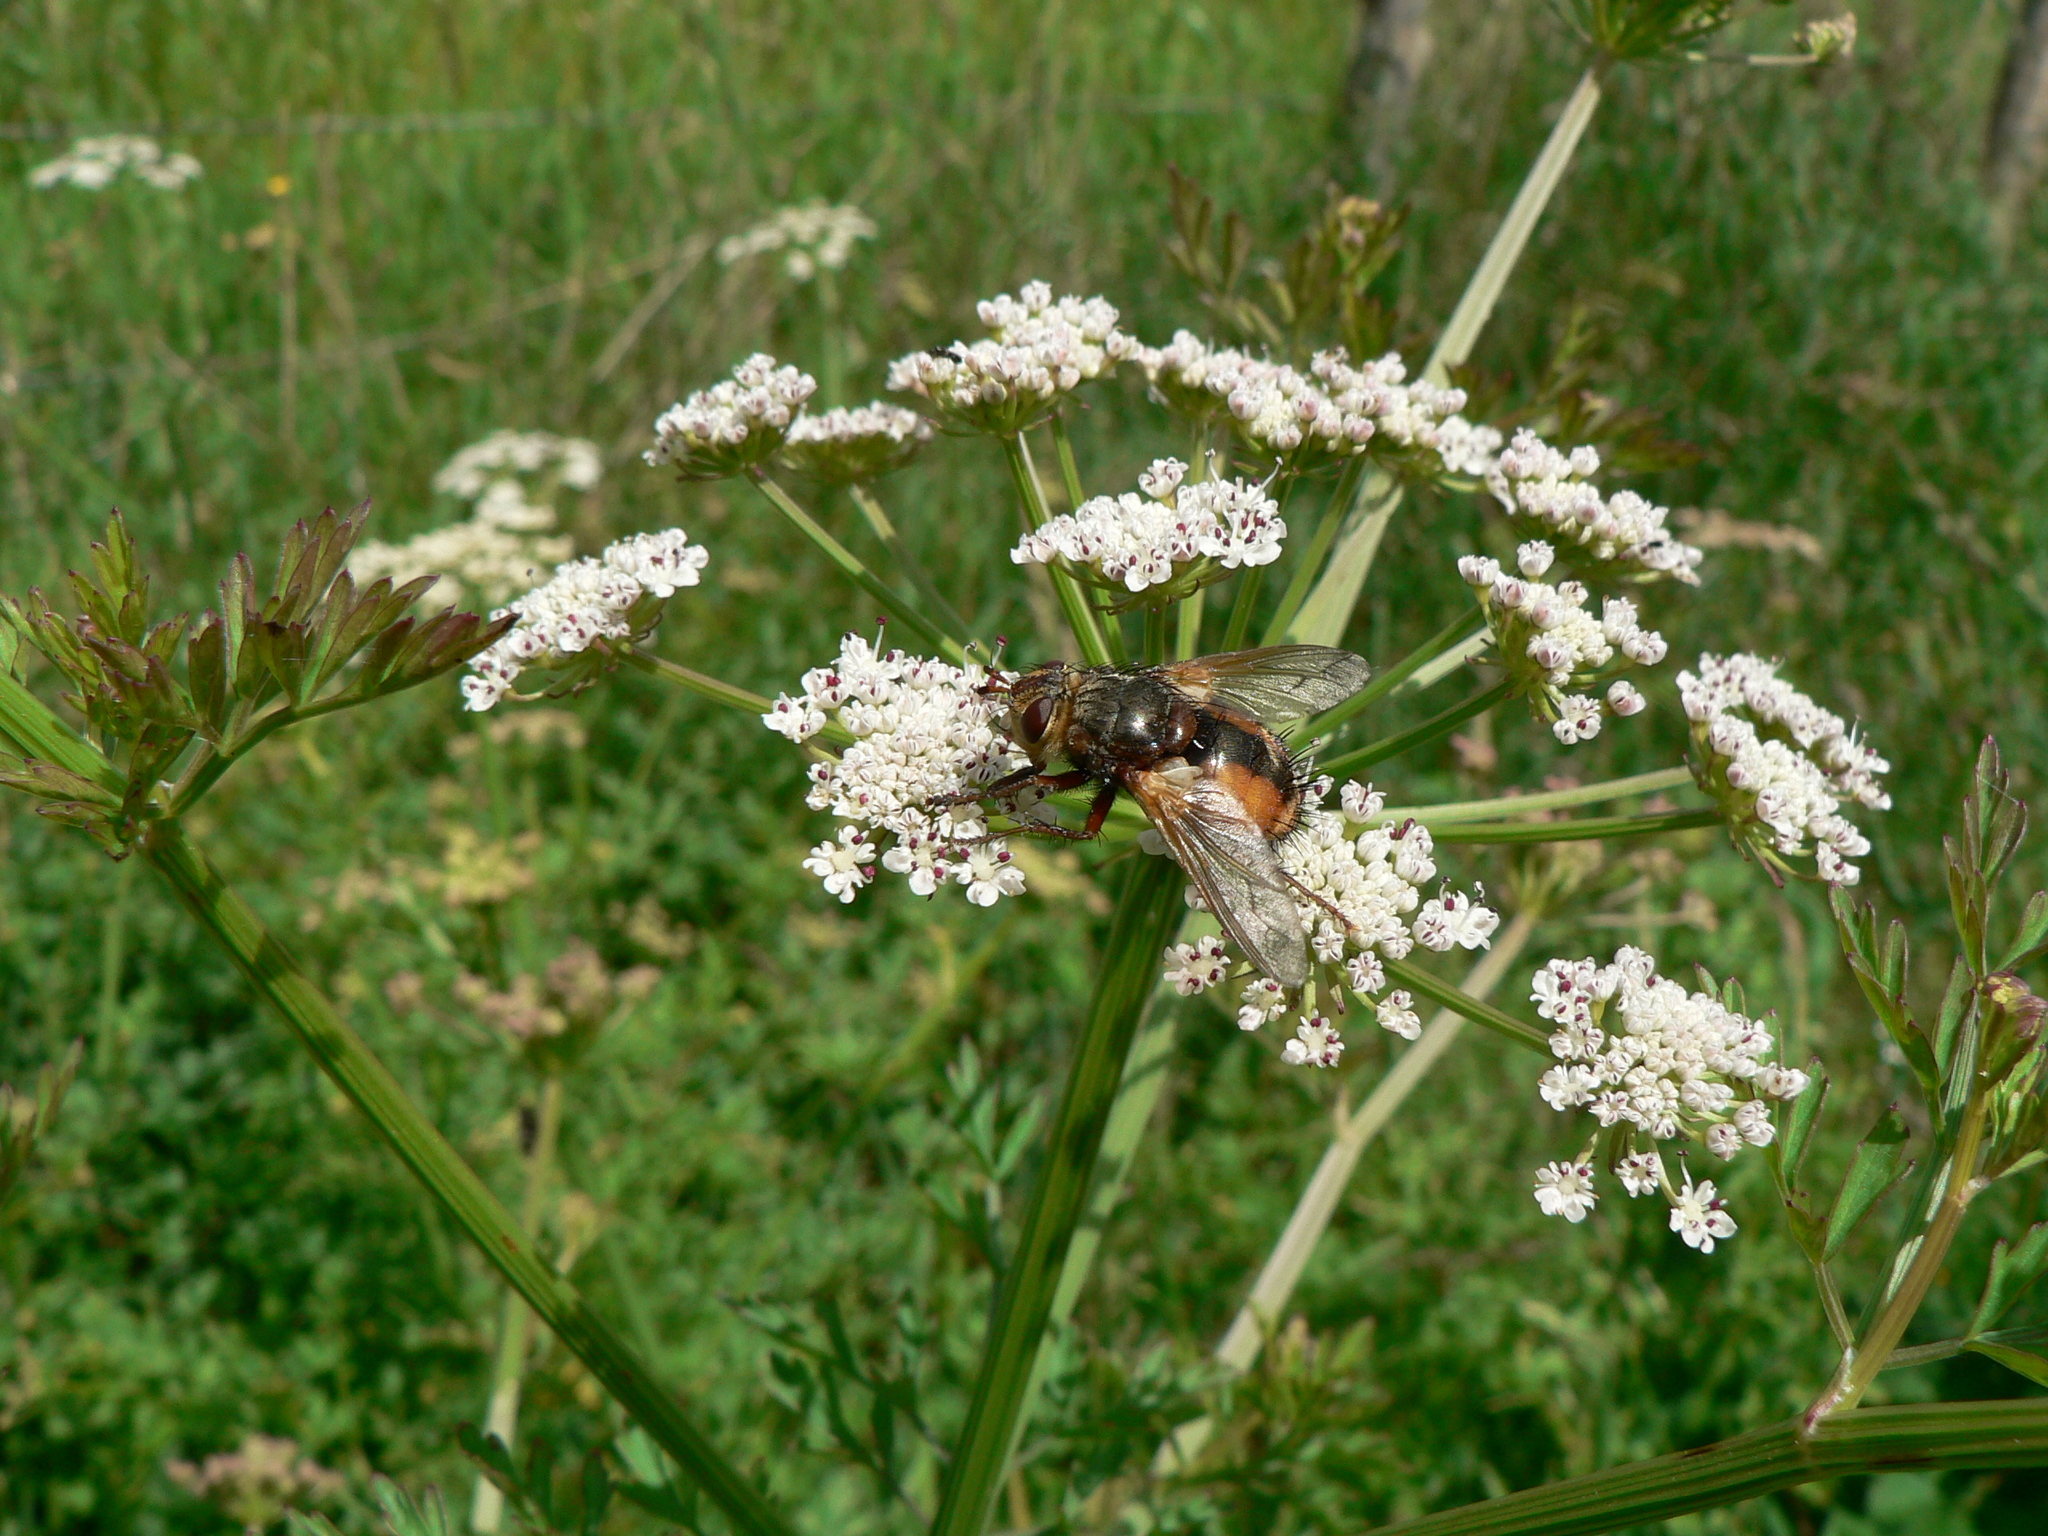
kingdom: Animalia
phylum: Arthropoda
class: Insecta
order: Diptera
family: Tachinidae
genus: Tachina
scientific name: Tachina fera
